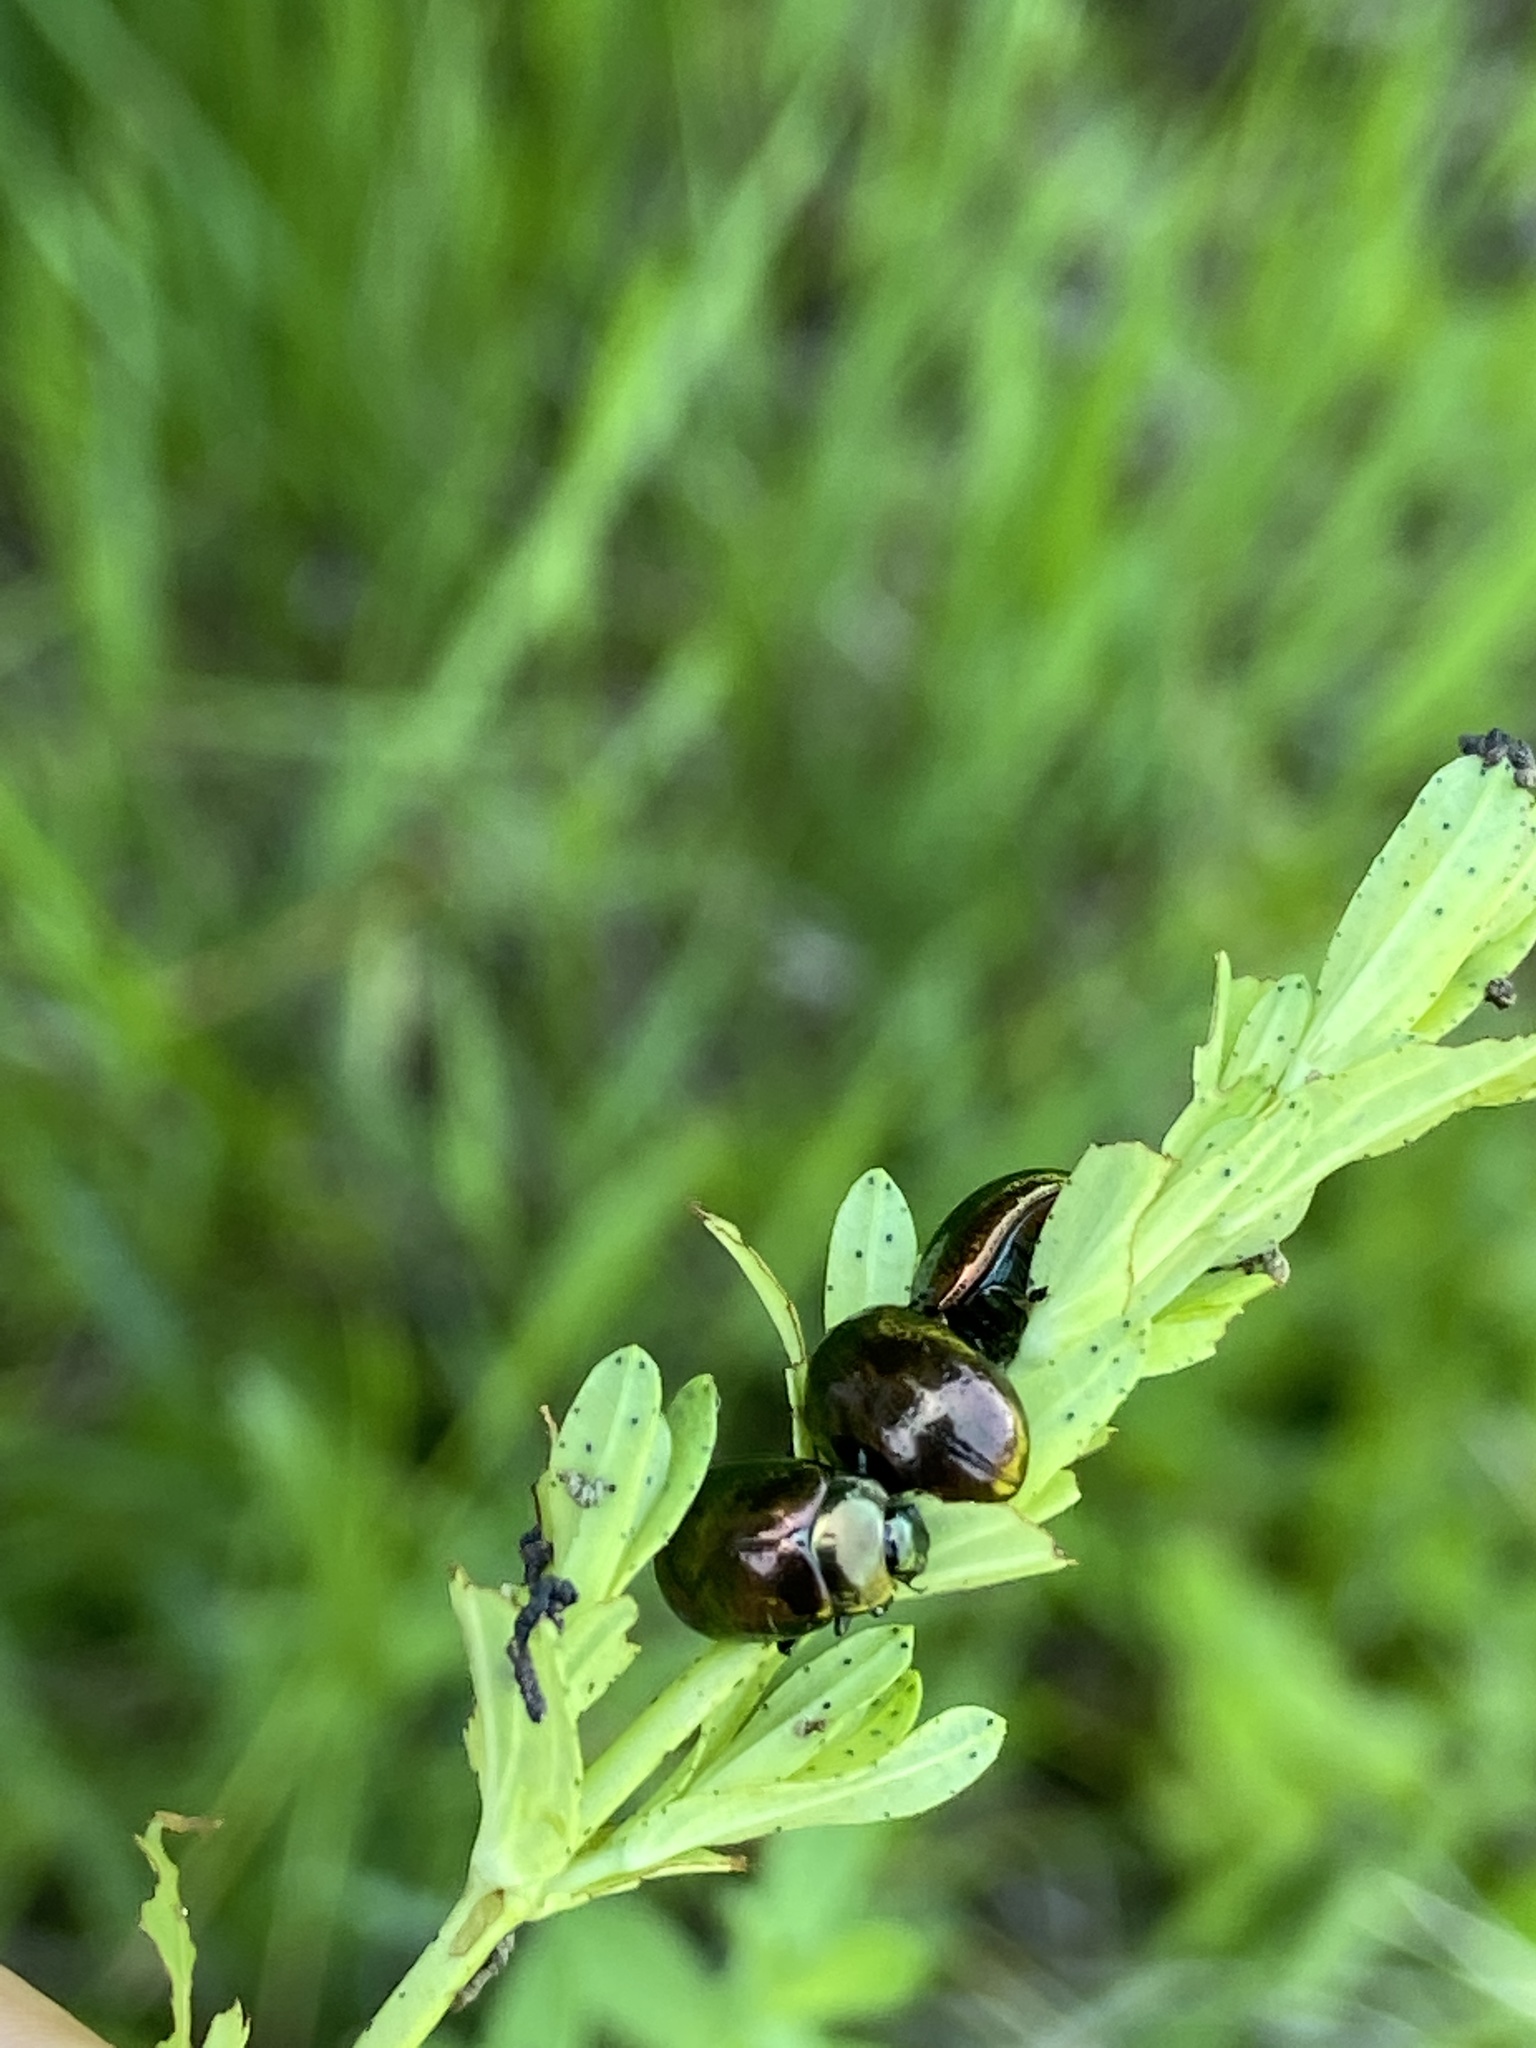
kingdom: Animalia
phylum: Arthropoda
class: Insecta
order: Coleoptera
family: Chrysomelidae
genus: Chrysolina
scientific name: Chrysolina hyperici
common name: St. johnswort beetle
